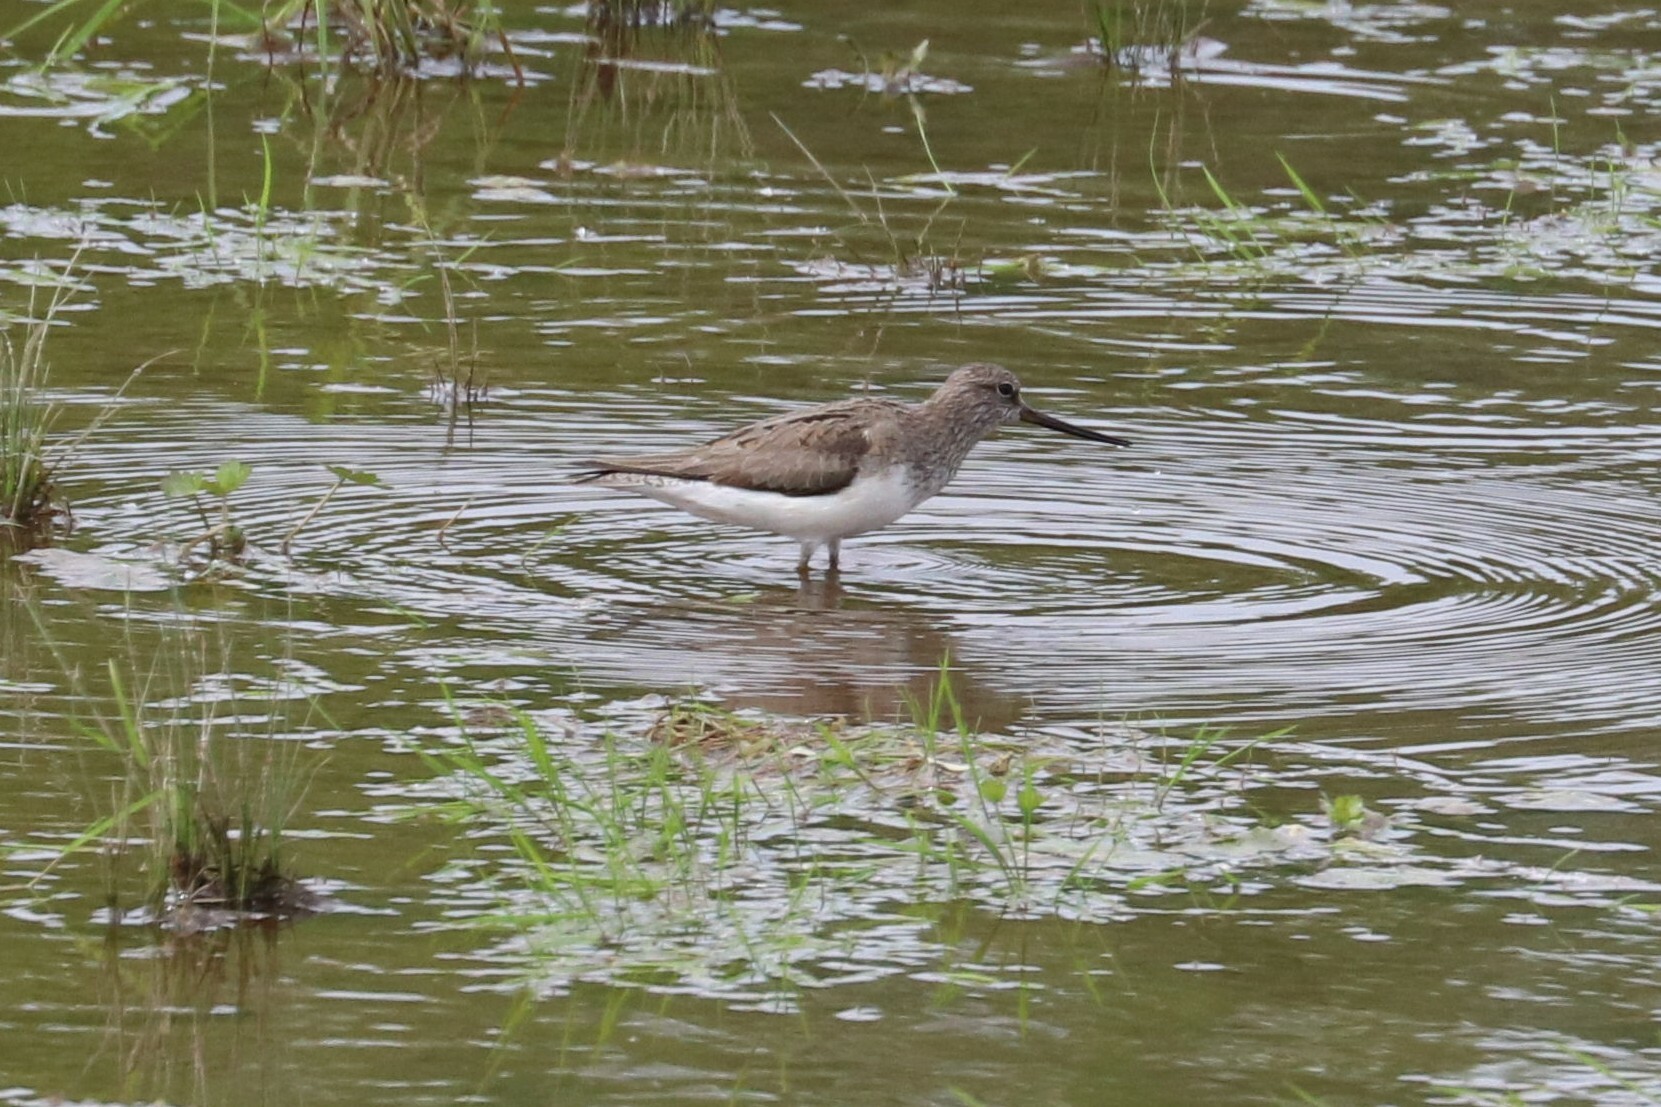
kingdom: Animalia
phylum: Chordata
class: Aves
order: Charadriiformes
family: Scolopacidae
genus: Xenus
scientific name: Xenus cinereus
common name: Terek sandpiper
